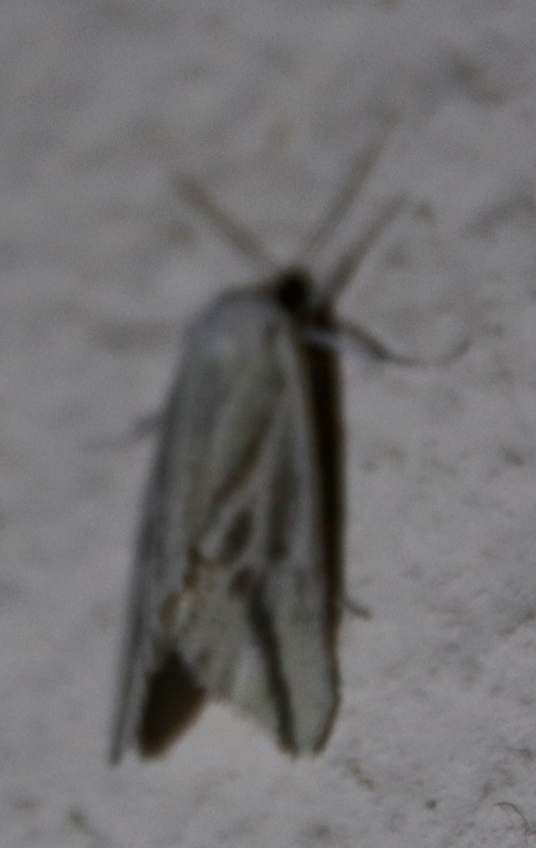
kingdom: Animalia
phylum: Arthropoda
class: Insecta
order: Lepidoptera
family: Geometridae
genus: Argyrophora
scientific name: Argyrophora variabilis
